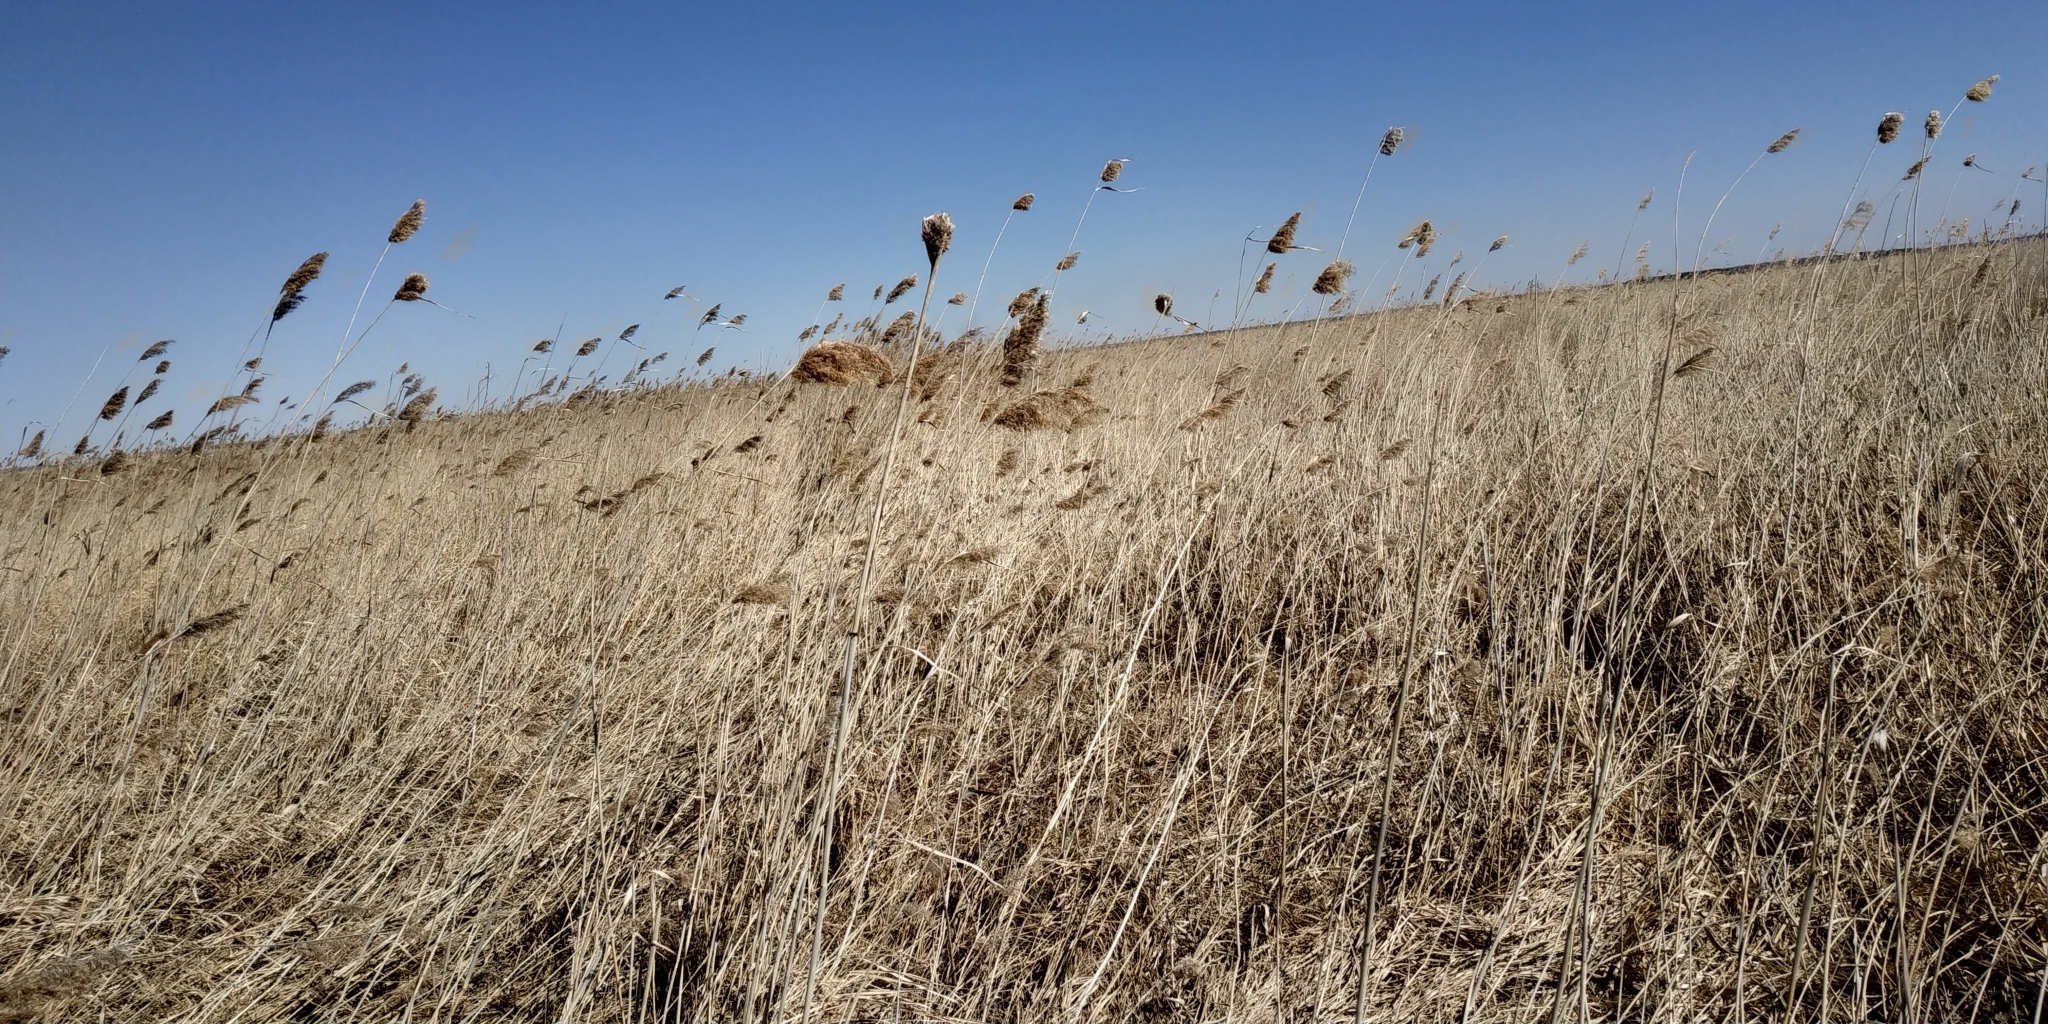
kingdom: Plantae
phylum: Tracheophyta
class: Liliopsida
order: Poales
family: Poaceae
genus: Phragmites
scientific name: Phragmites australis
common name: Common reed
